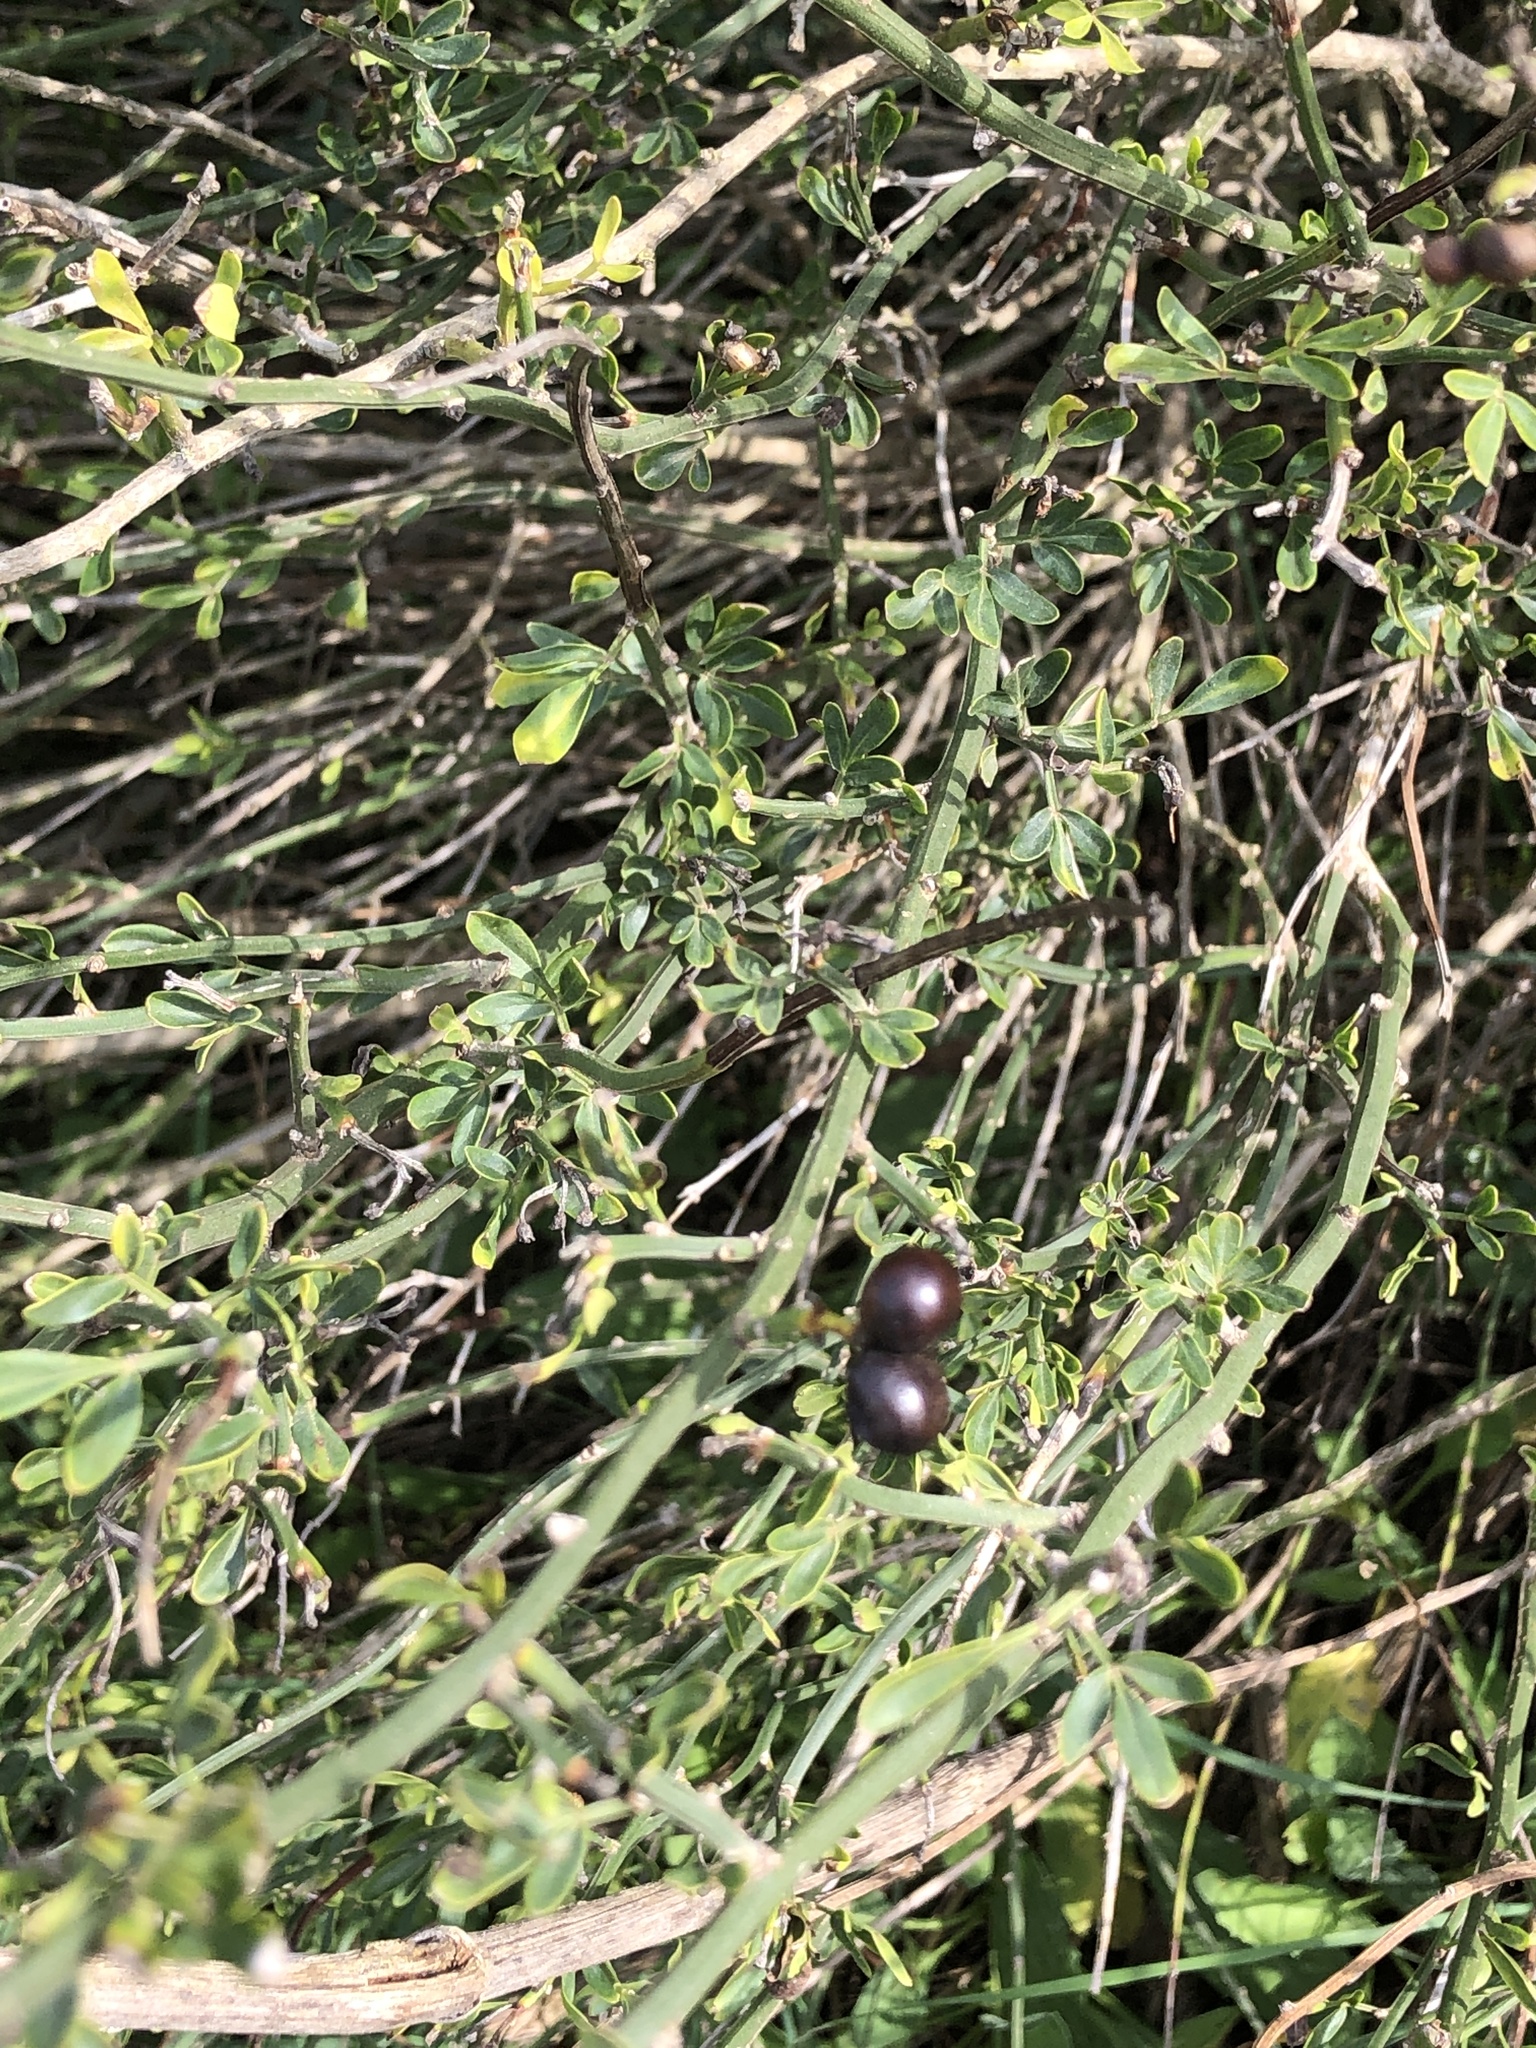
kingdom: Plantae
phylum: Tracheophyta
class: Magnoliopsida
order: Lamiales
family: Oleaceae
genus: Chrysojasminum
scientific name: Chrysojasminum fruticans
